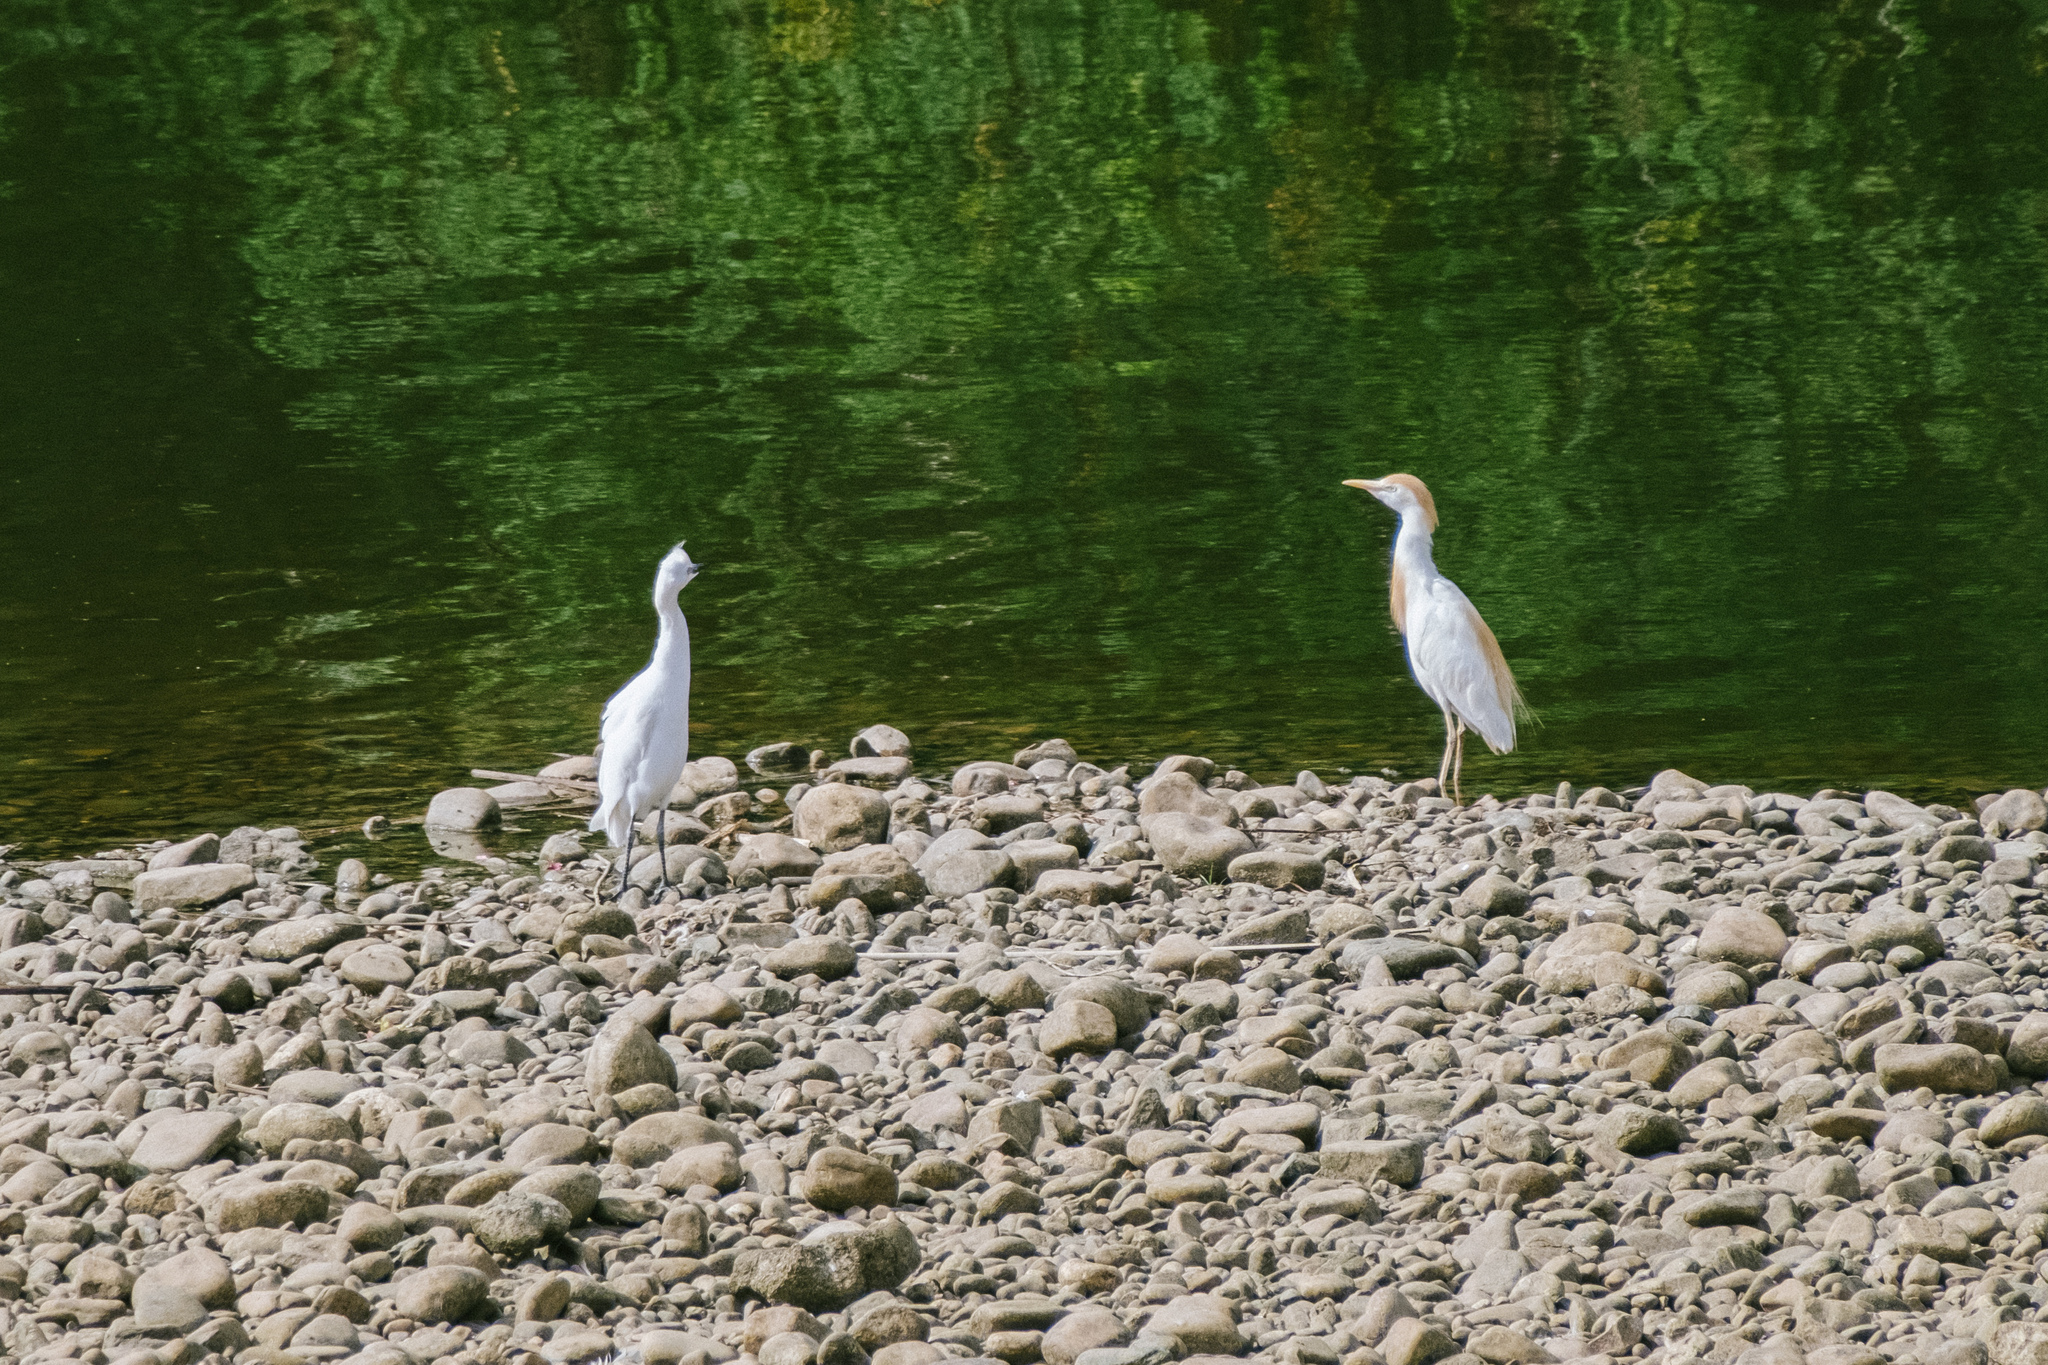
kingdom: Animalia
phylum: Chordata
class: Aves
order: Pelecaniformes
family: Ardeidae
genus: Bubulcus
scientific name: Bubulcus ibis
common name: Cattle egret
